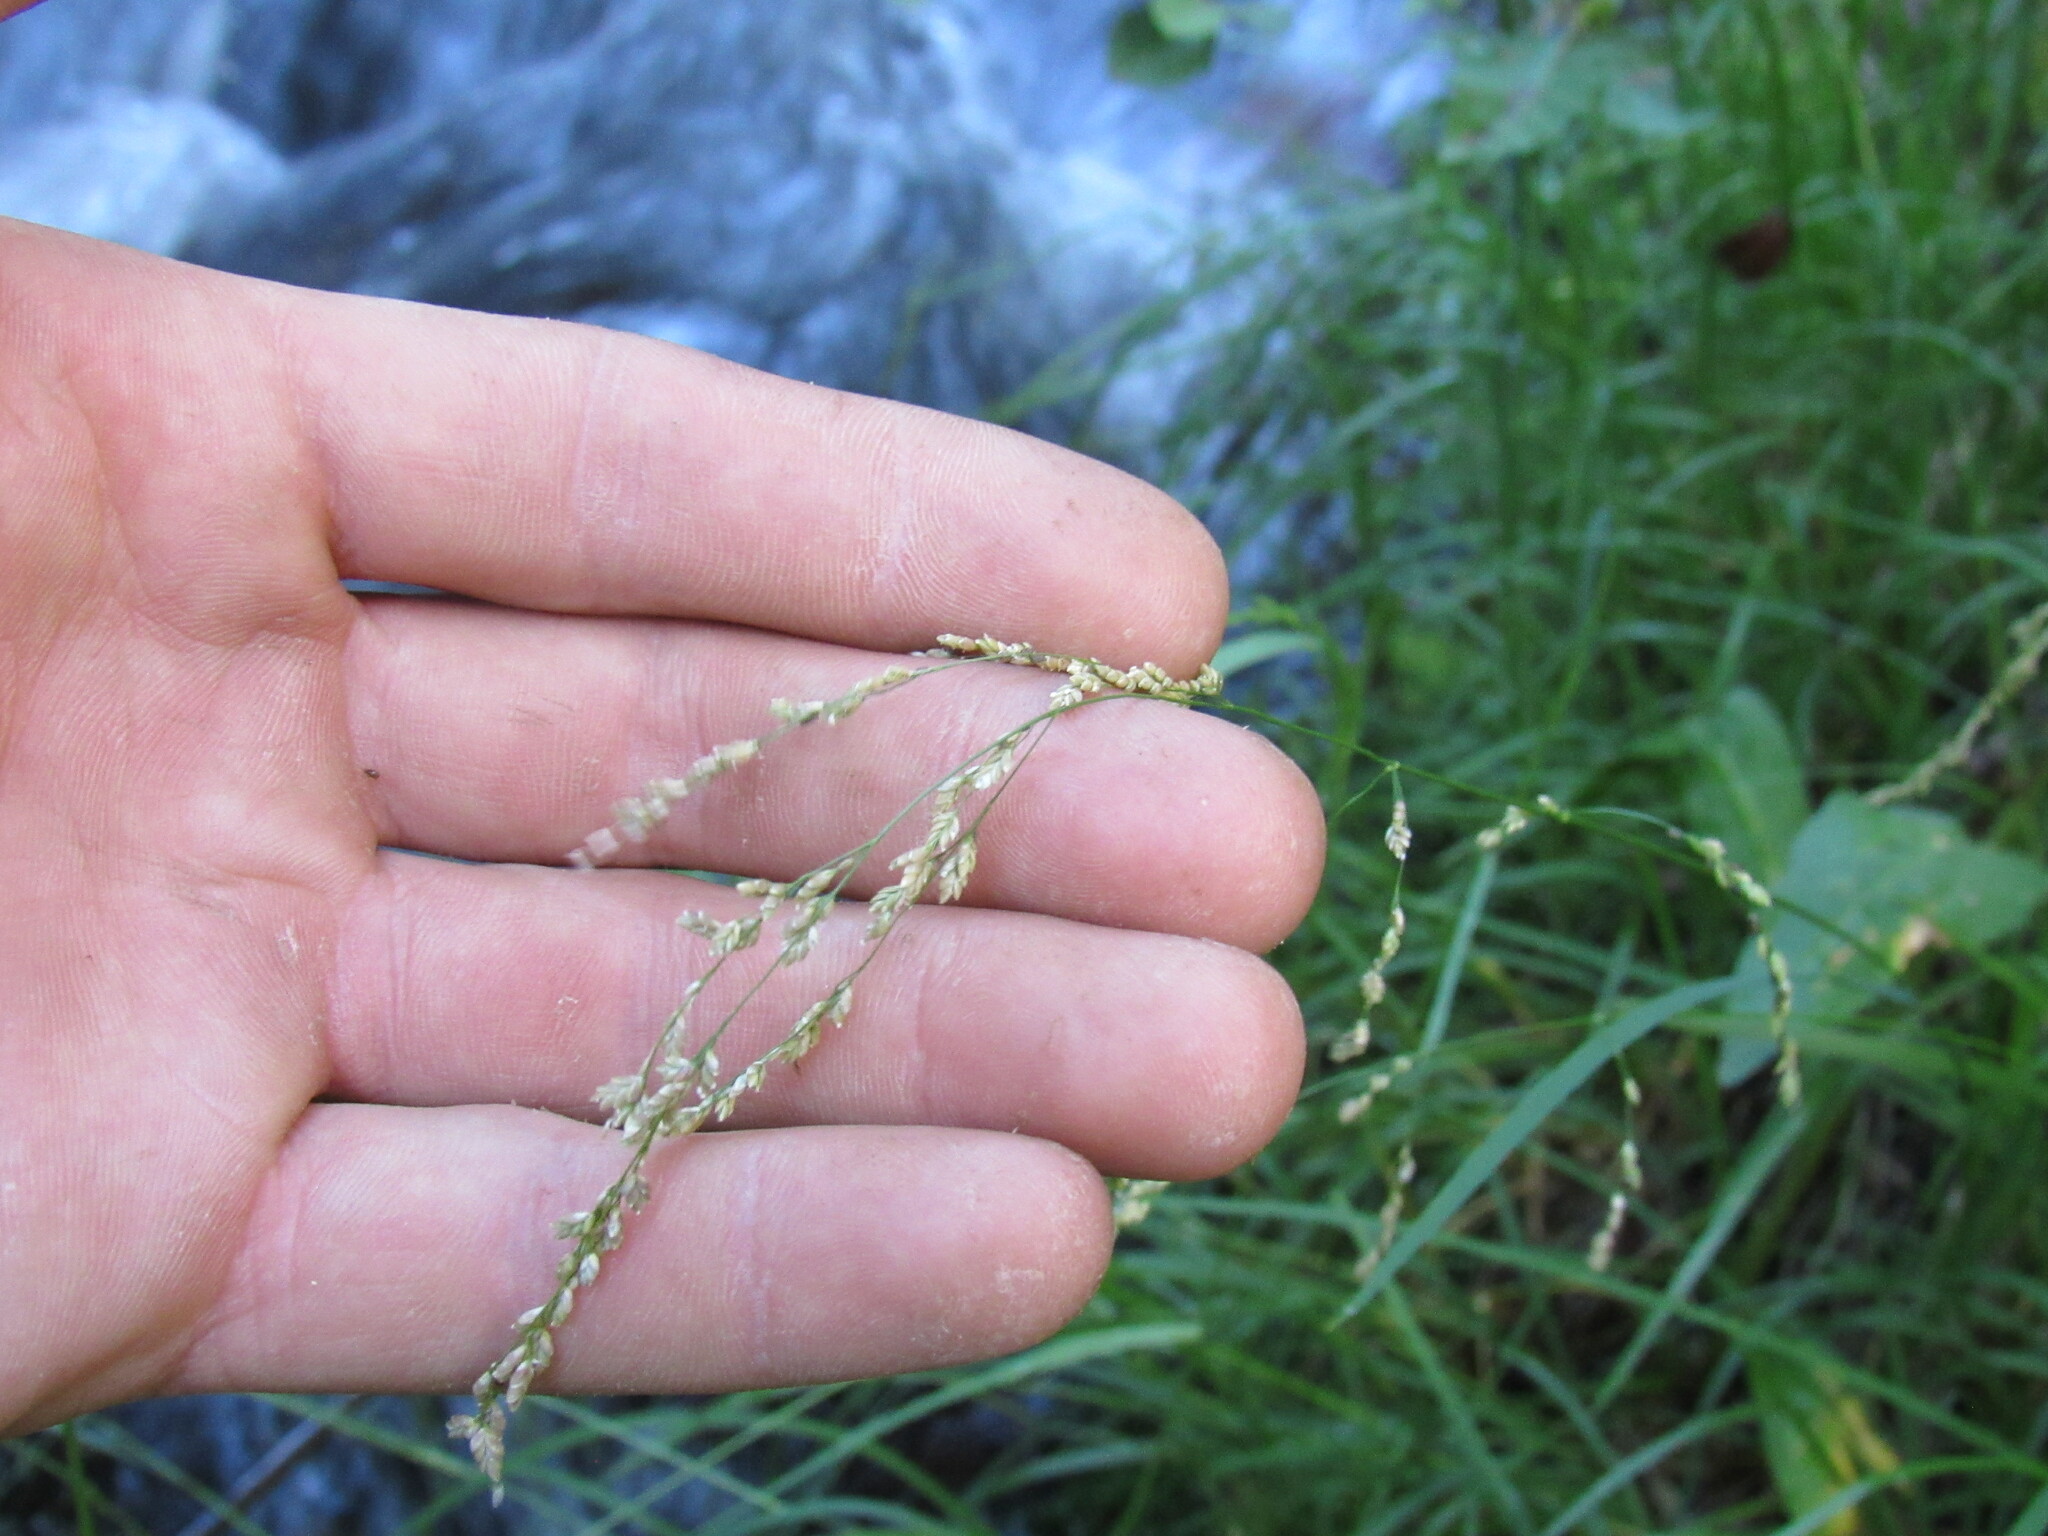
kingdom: Plantae
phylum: Tracheophyta
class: Liliopsida
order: Poales
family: Poaceae
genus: Glyceria
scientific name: Glyceria striata
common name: Fowl manna grass
